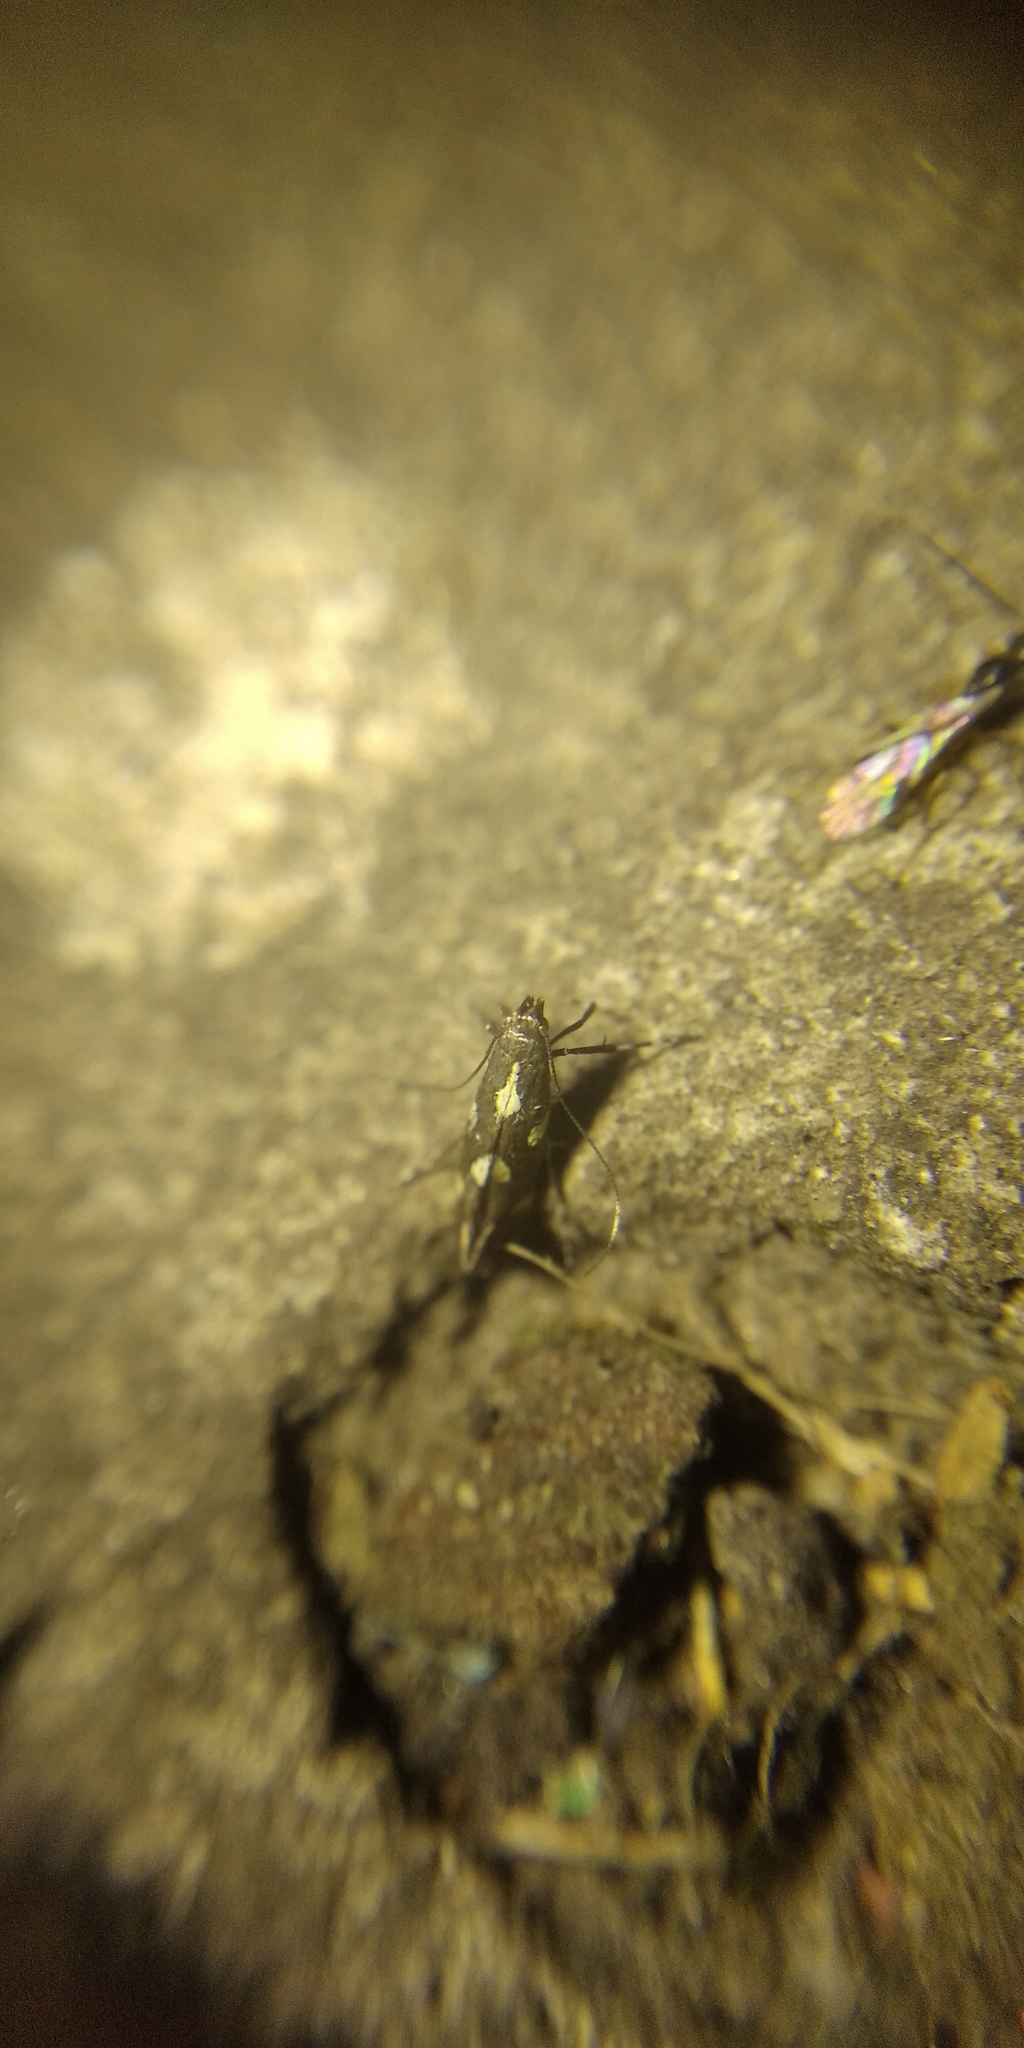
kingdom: Animalia
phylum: Arthropoda
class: Insecta
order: Lepidoptera
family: Gracillariidae
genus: Calybites
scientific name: Calybites phasianipennella
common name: Little slender
